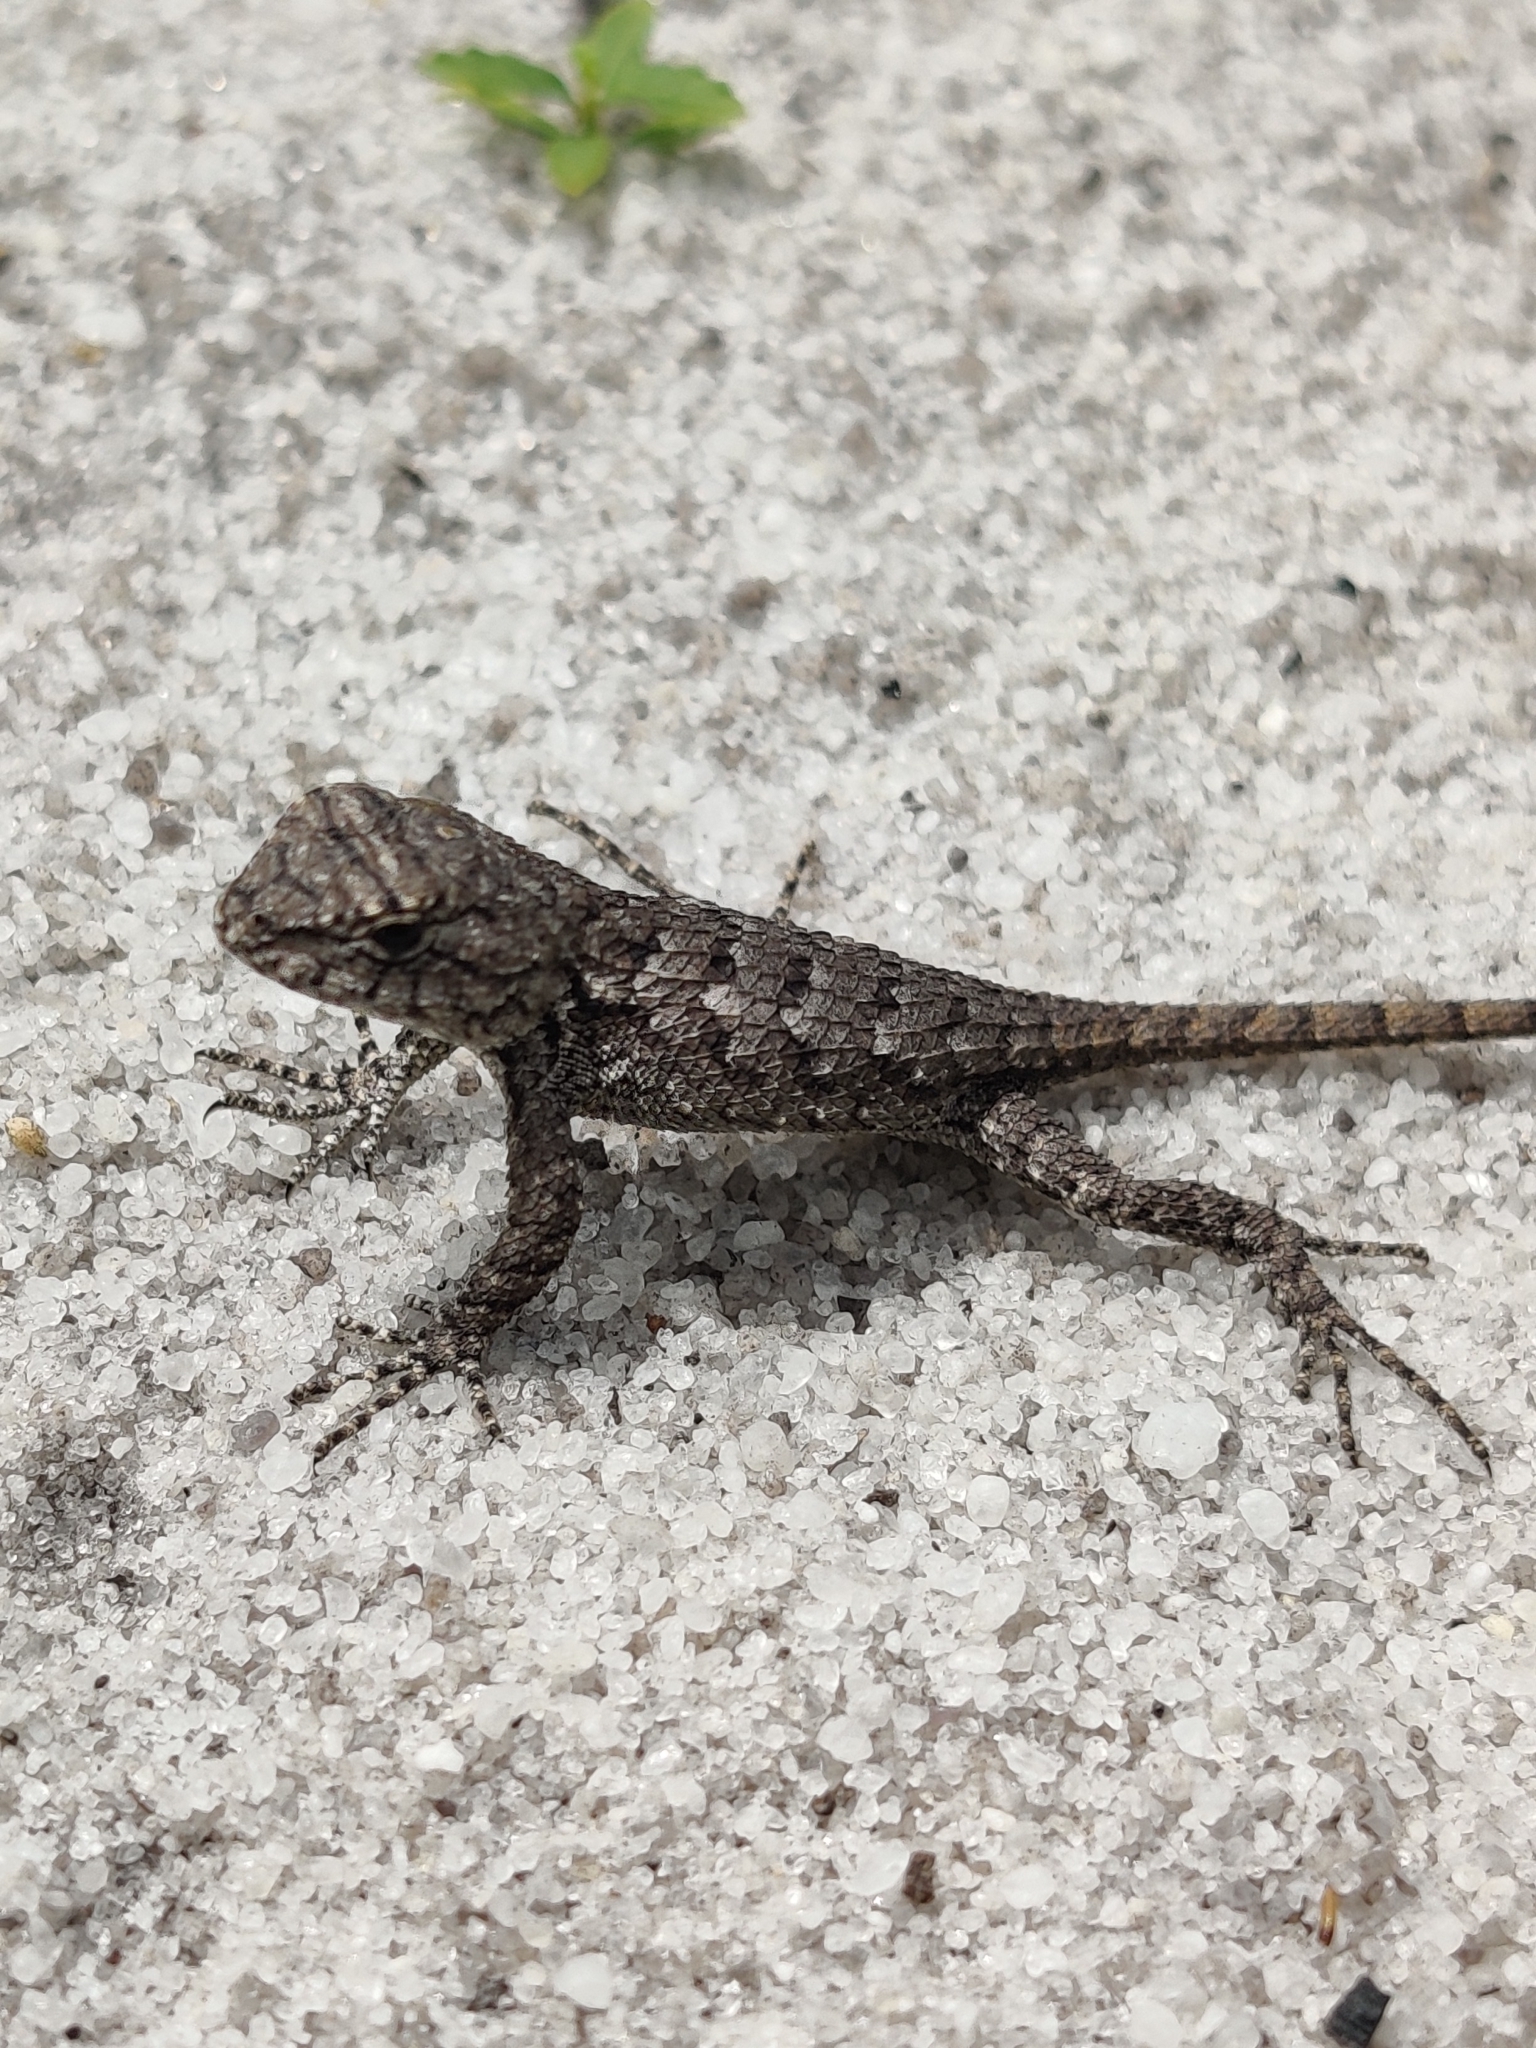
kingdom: Animalia
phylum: Chordata
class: Squamata
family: Phrynosomatidae
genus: Sceloporus
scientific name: Sceloporus undulatus
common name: Eastern fence lizard
